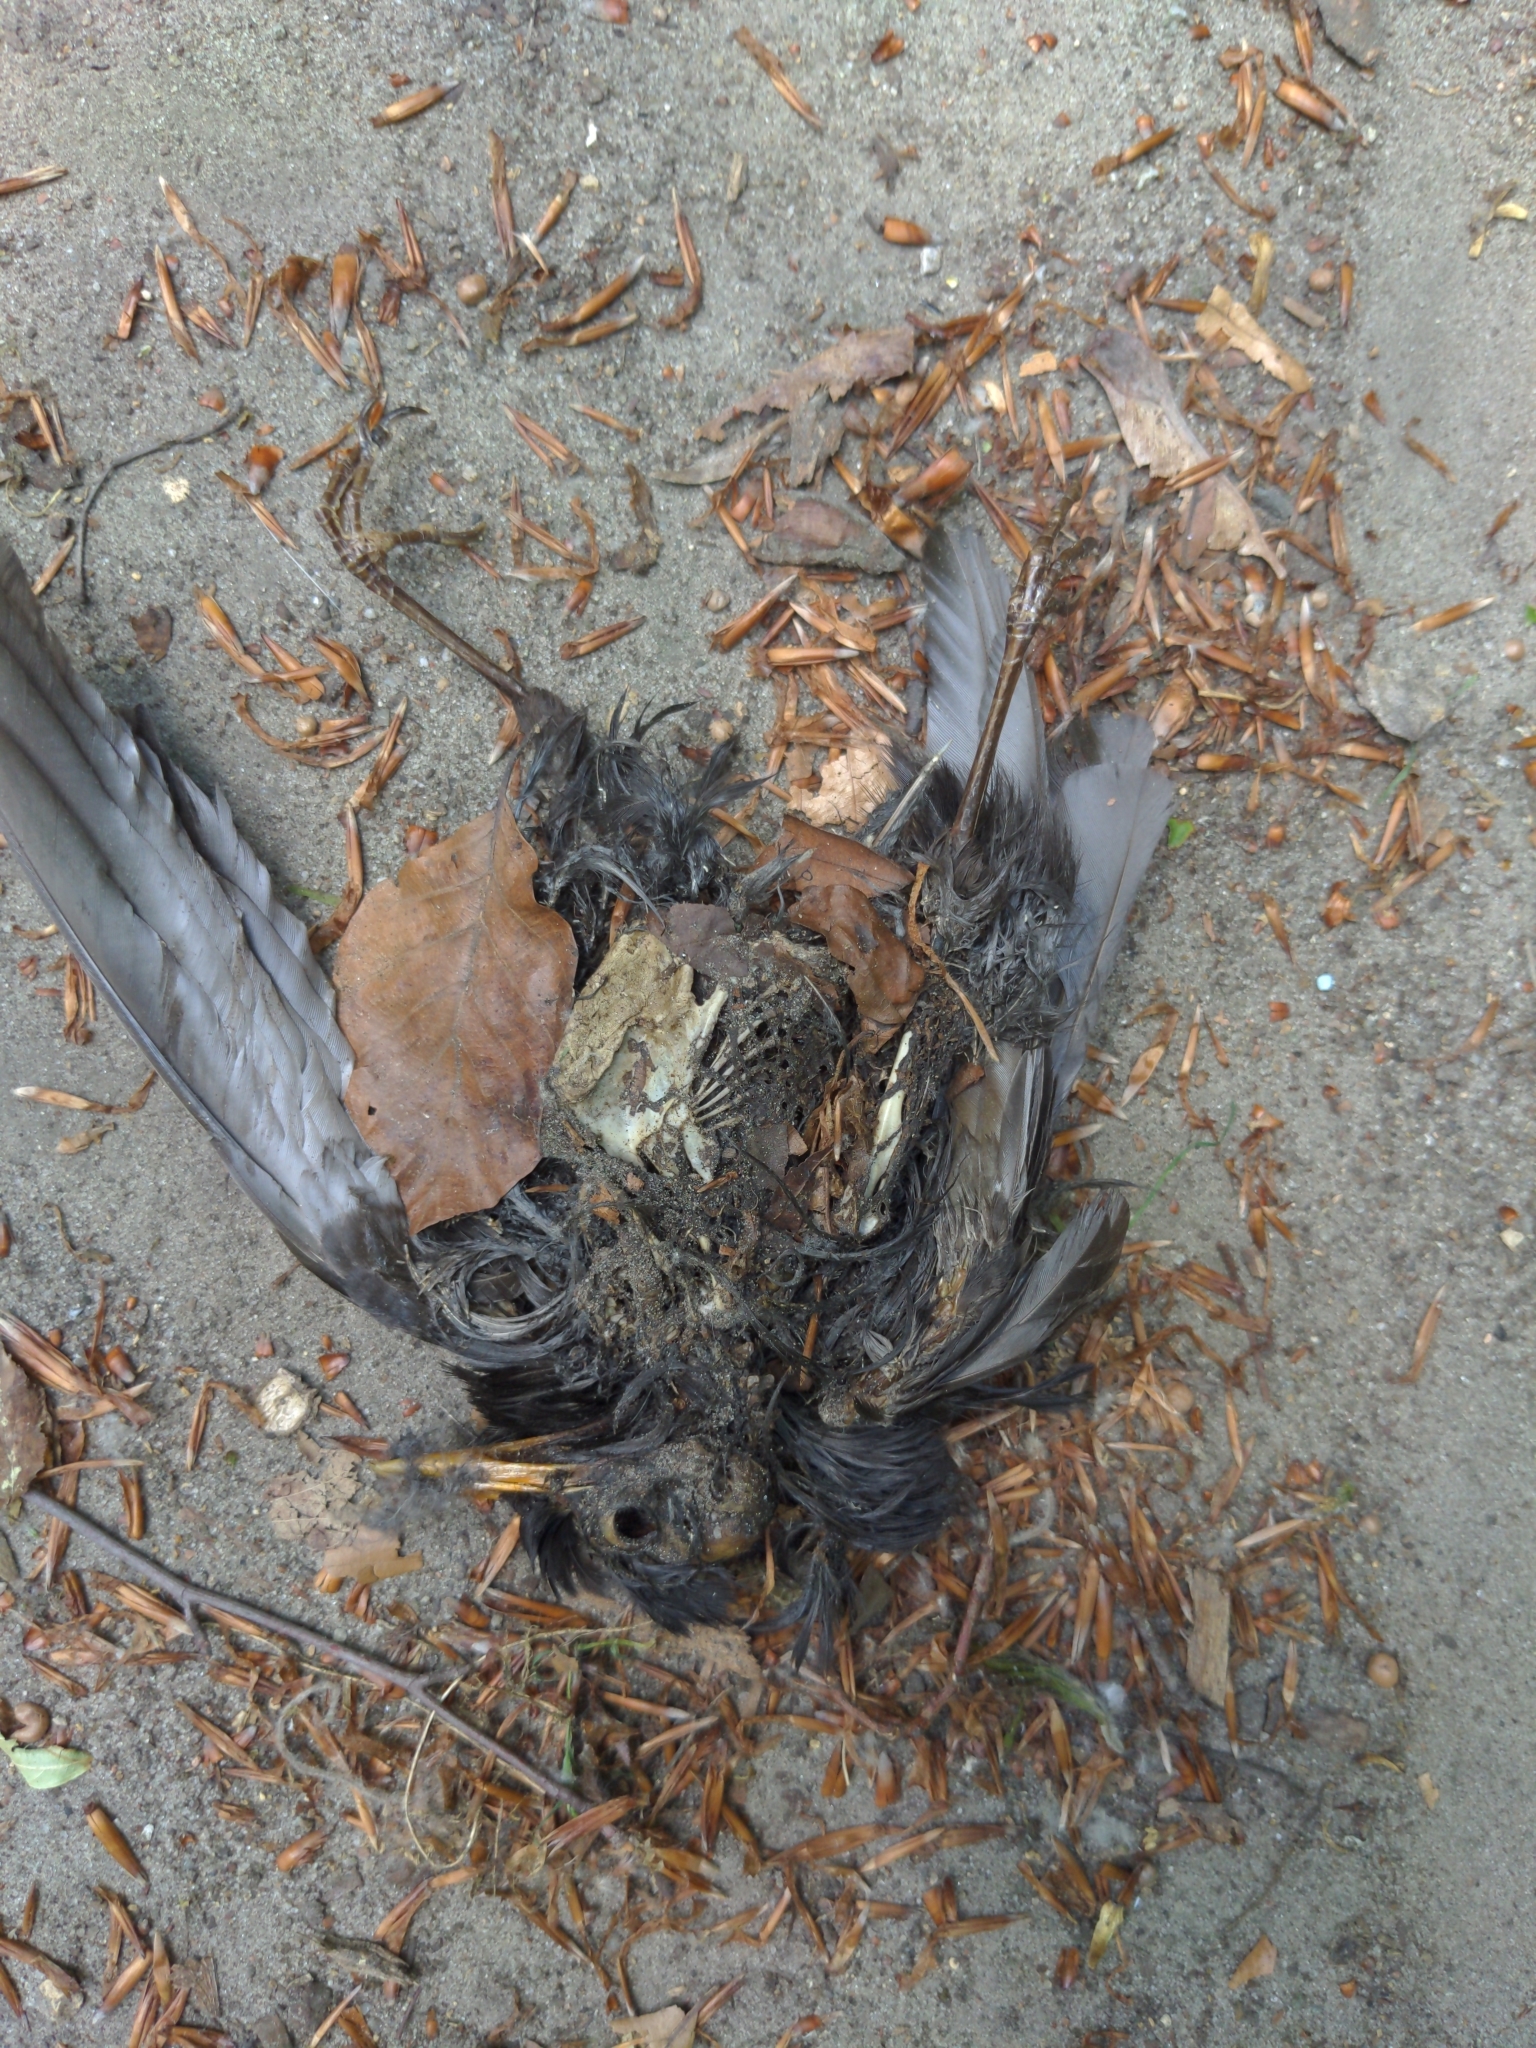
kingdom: Animalia
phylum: Chordata
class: Aves
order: Passeriformes
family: Turdidae
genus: Turdus
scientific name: Turdus merula
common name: Common blackbird
